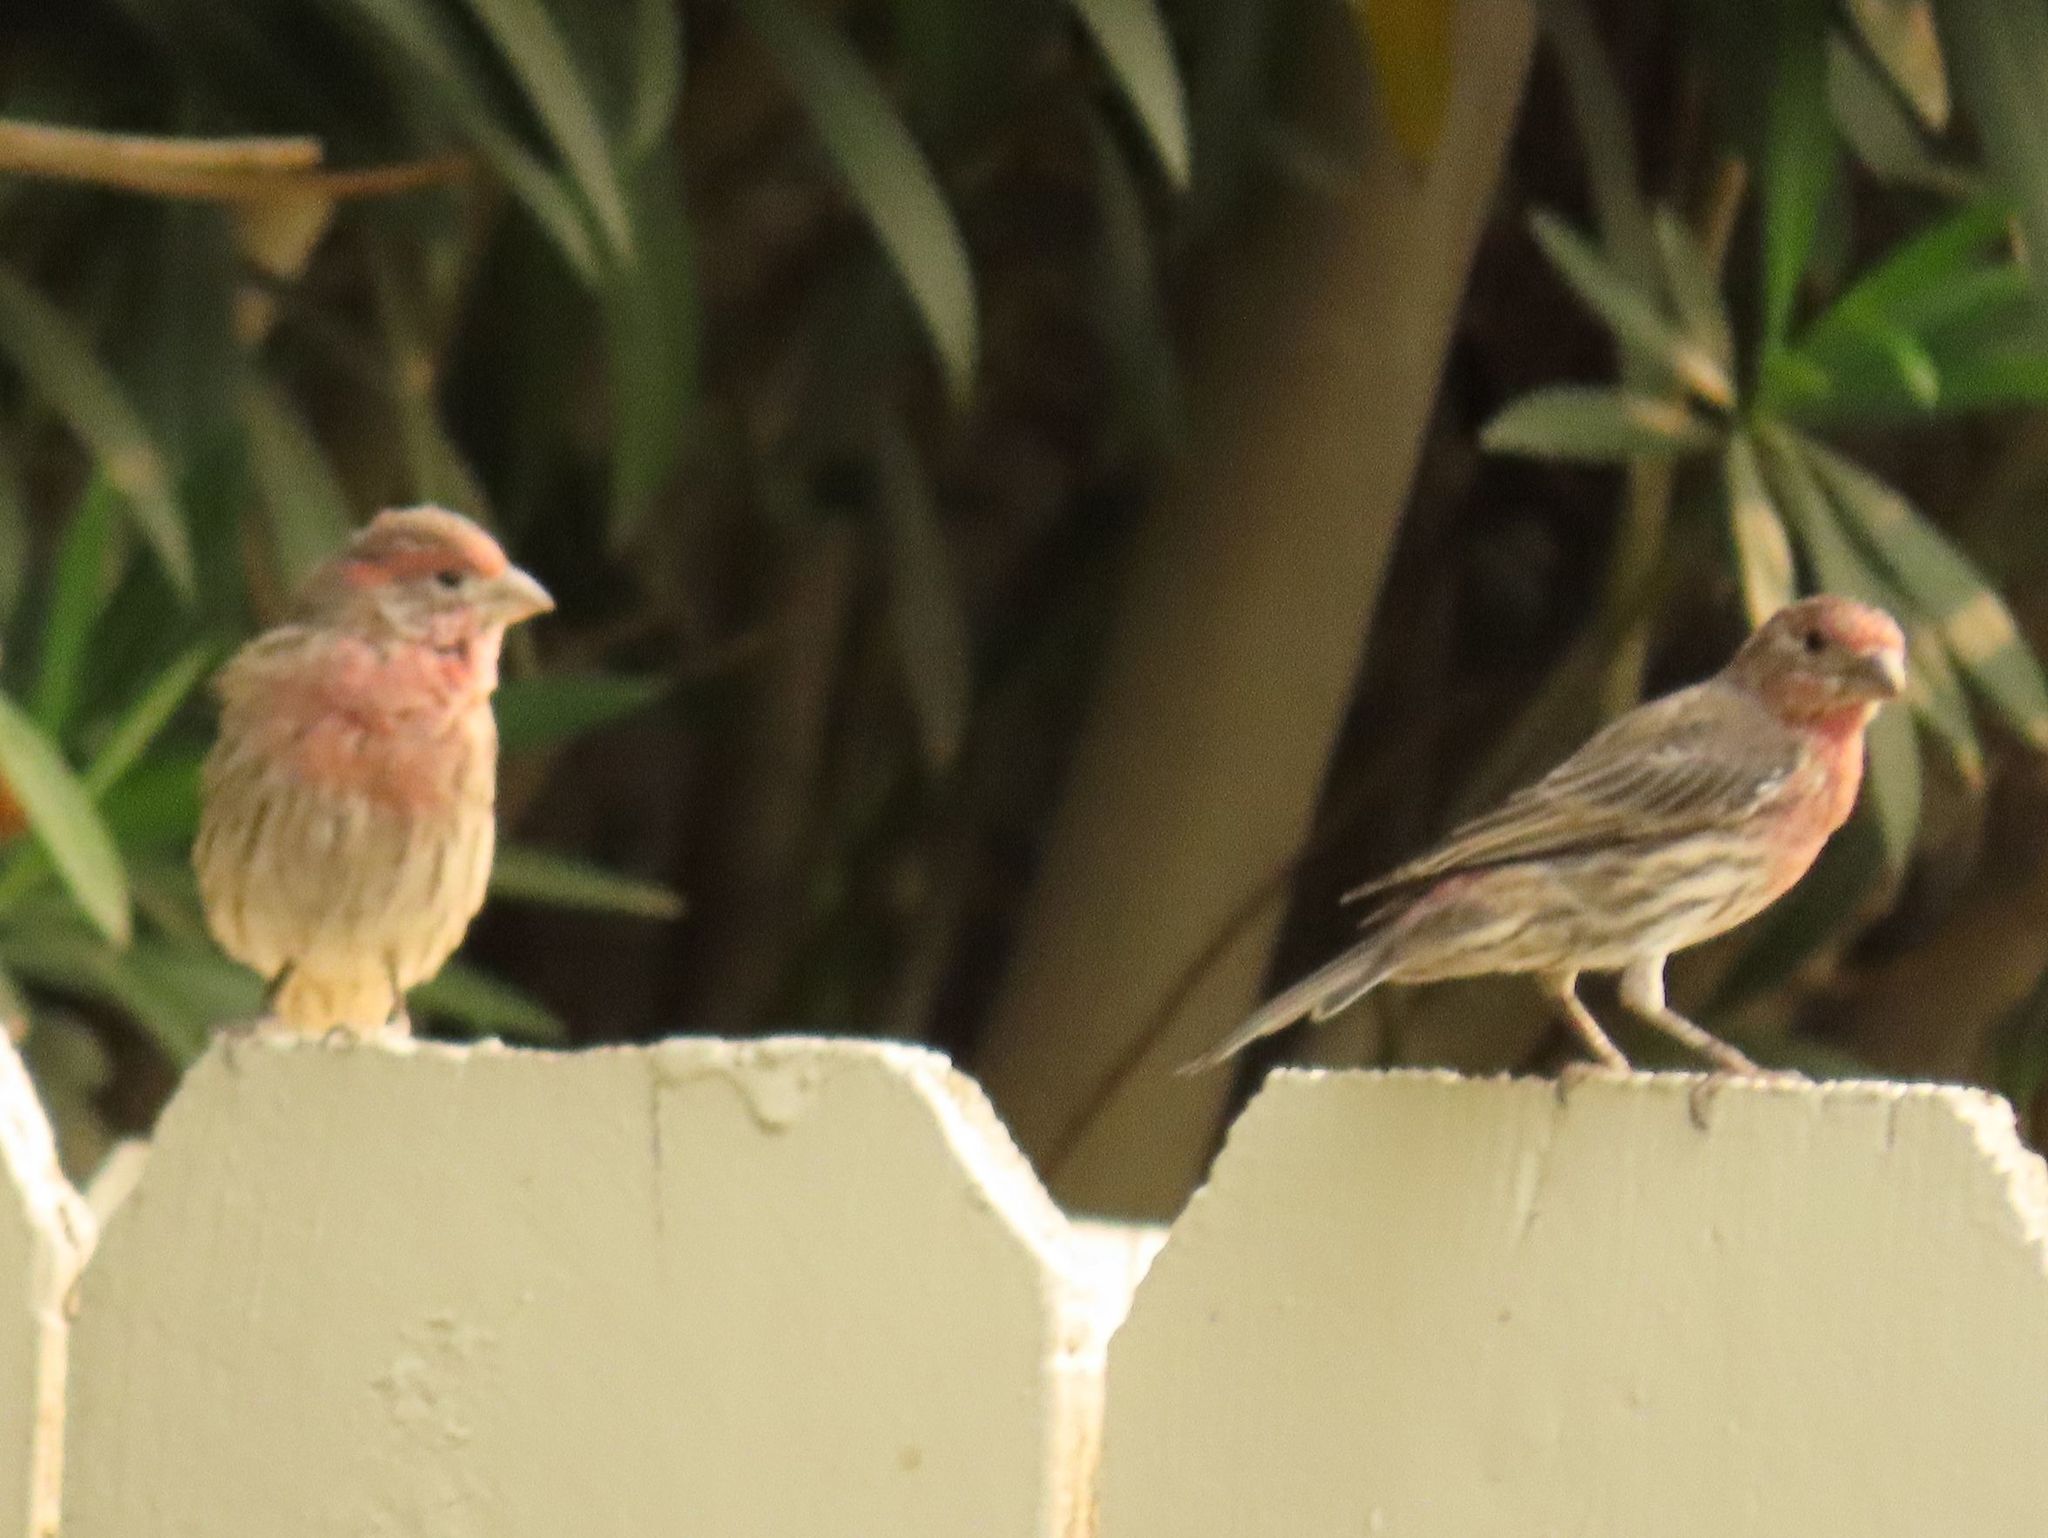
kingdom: Animalia
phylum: Chordata
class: Aves
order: Passeriformes
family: Fringillidae
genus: Haemorhous
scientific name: Haemorhous mexicanus
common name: House finch
